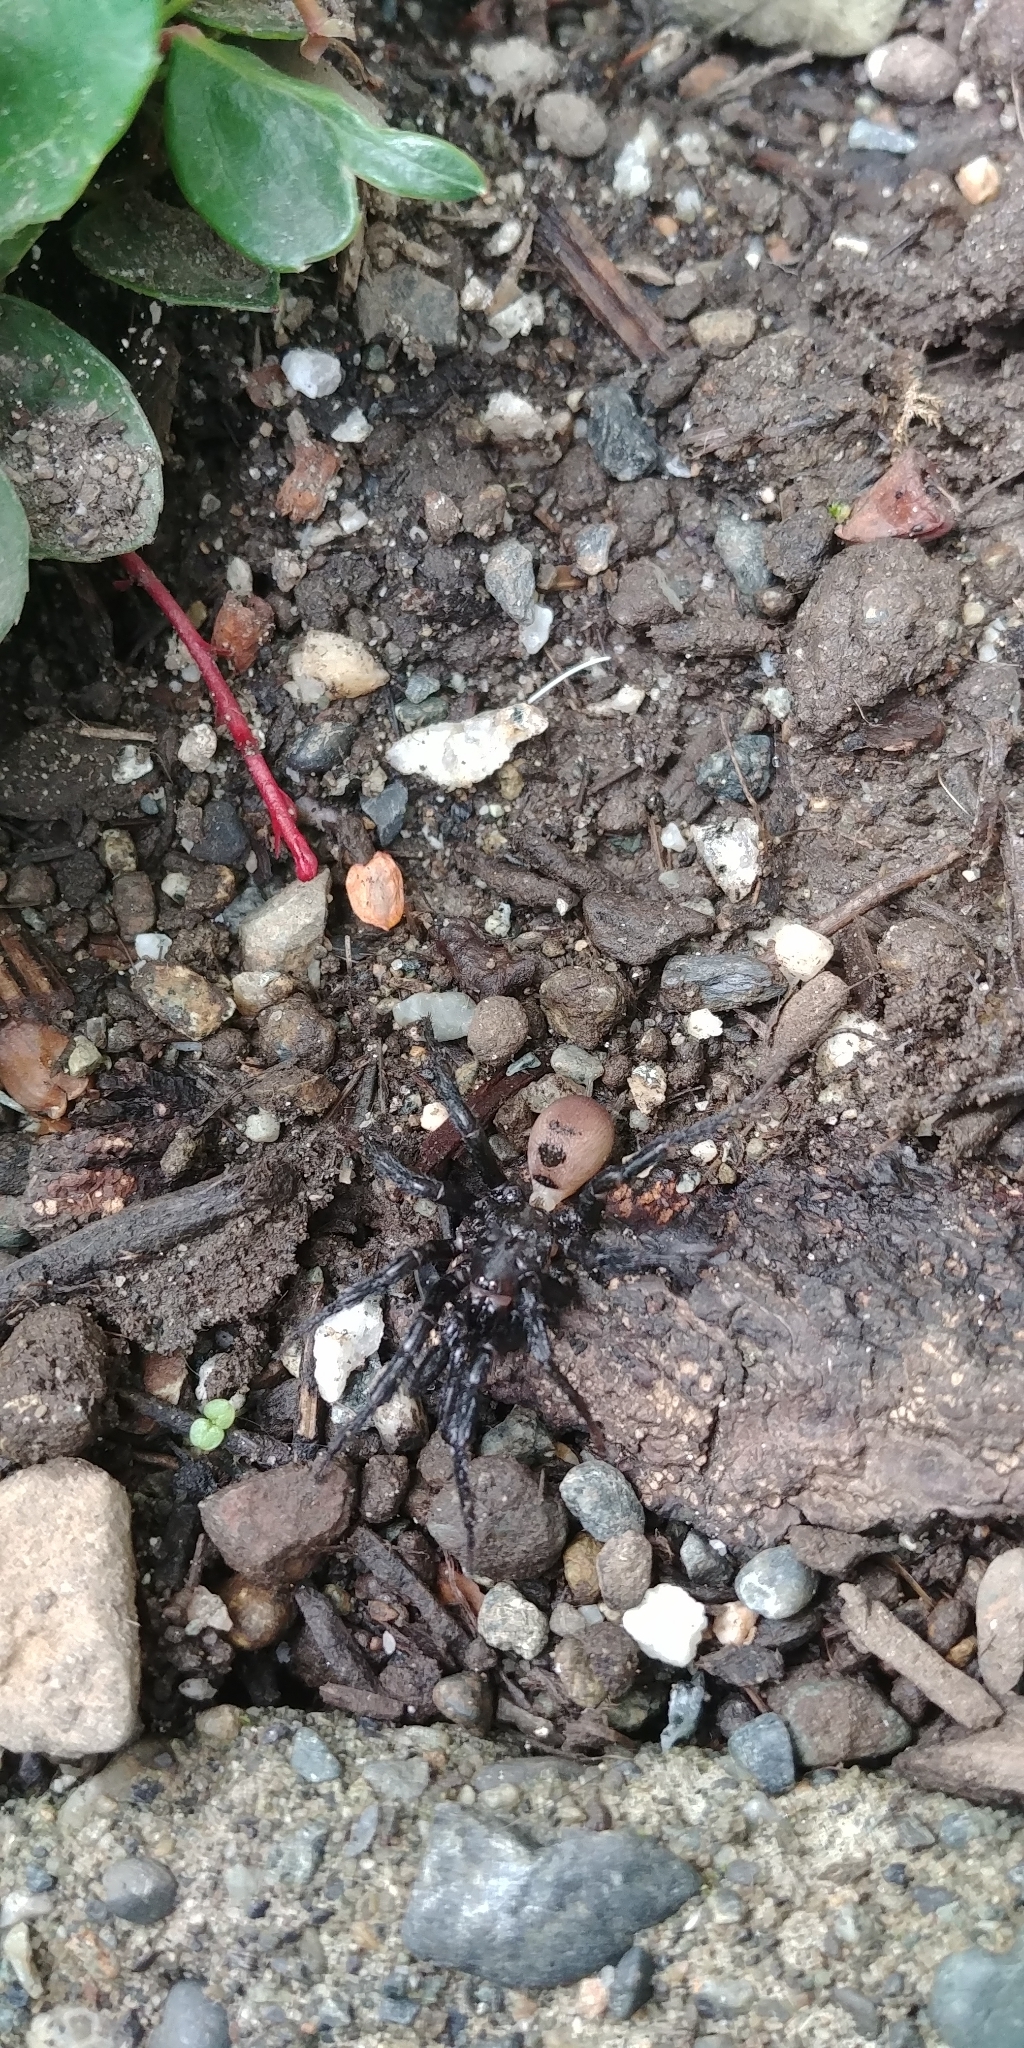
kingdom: Animalia
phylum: Arthropoda
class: Arachnida
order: Araneae
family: Antrodiaetidae
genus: Antrodiaetus
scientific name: Antrodiaetus pacificus
